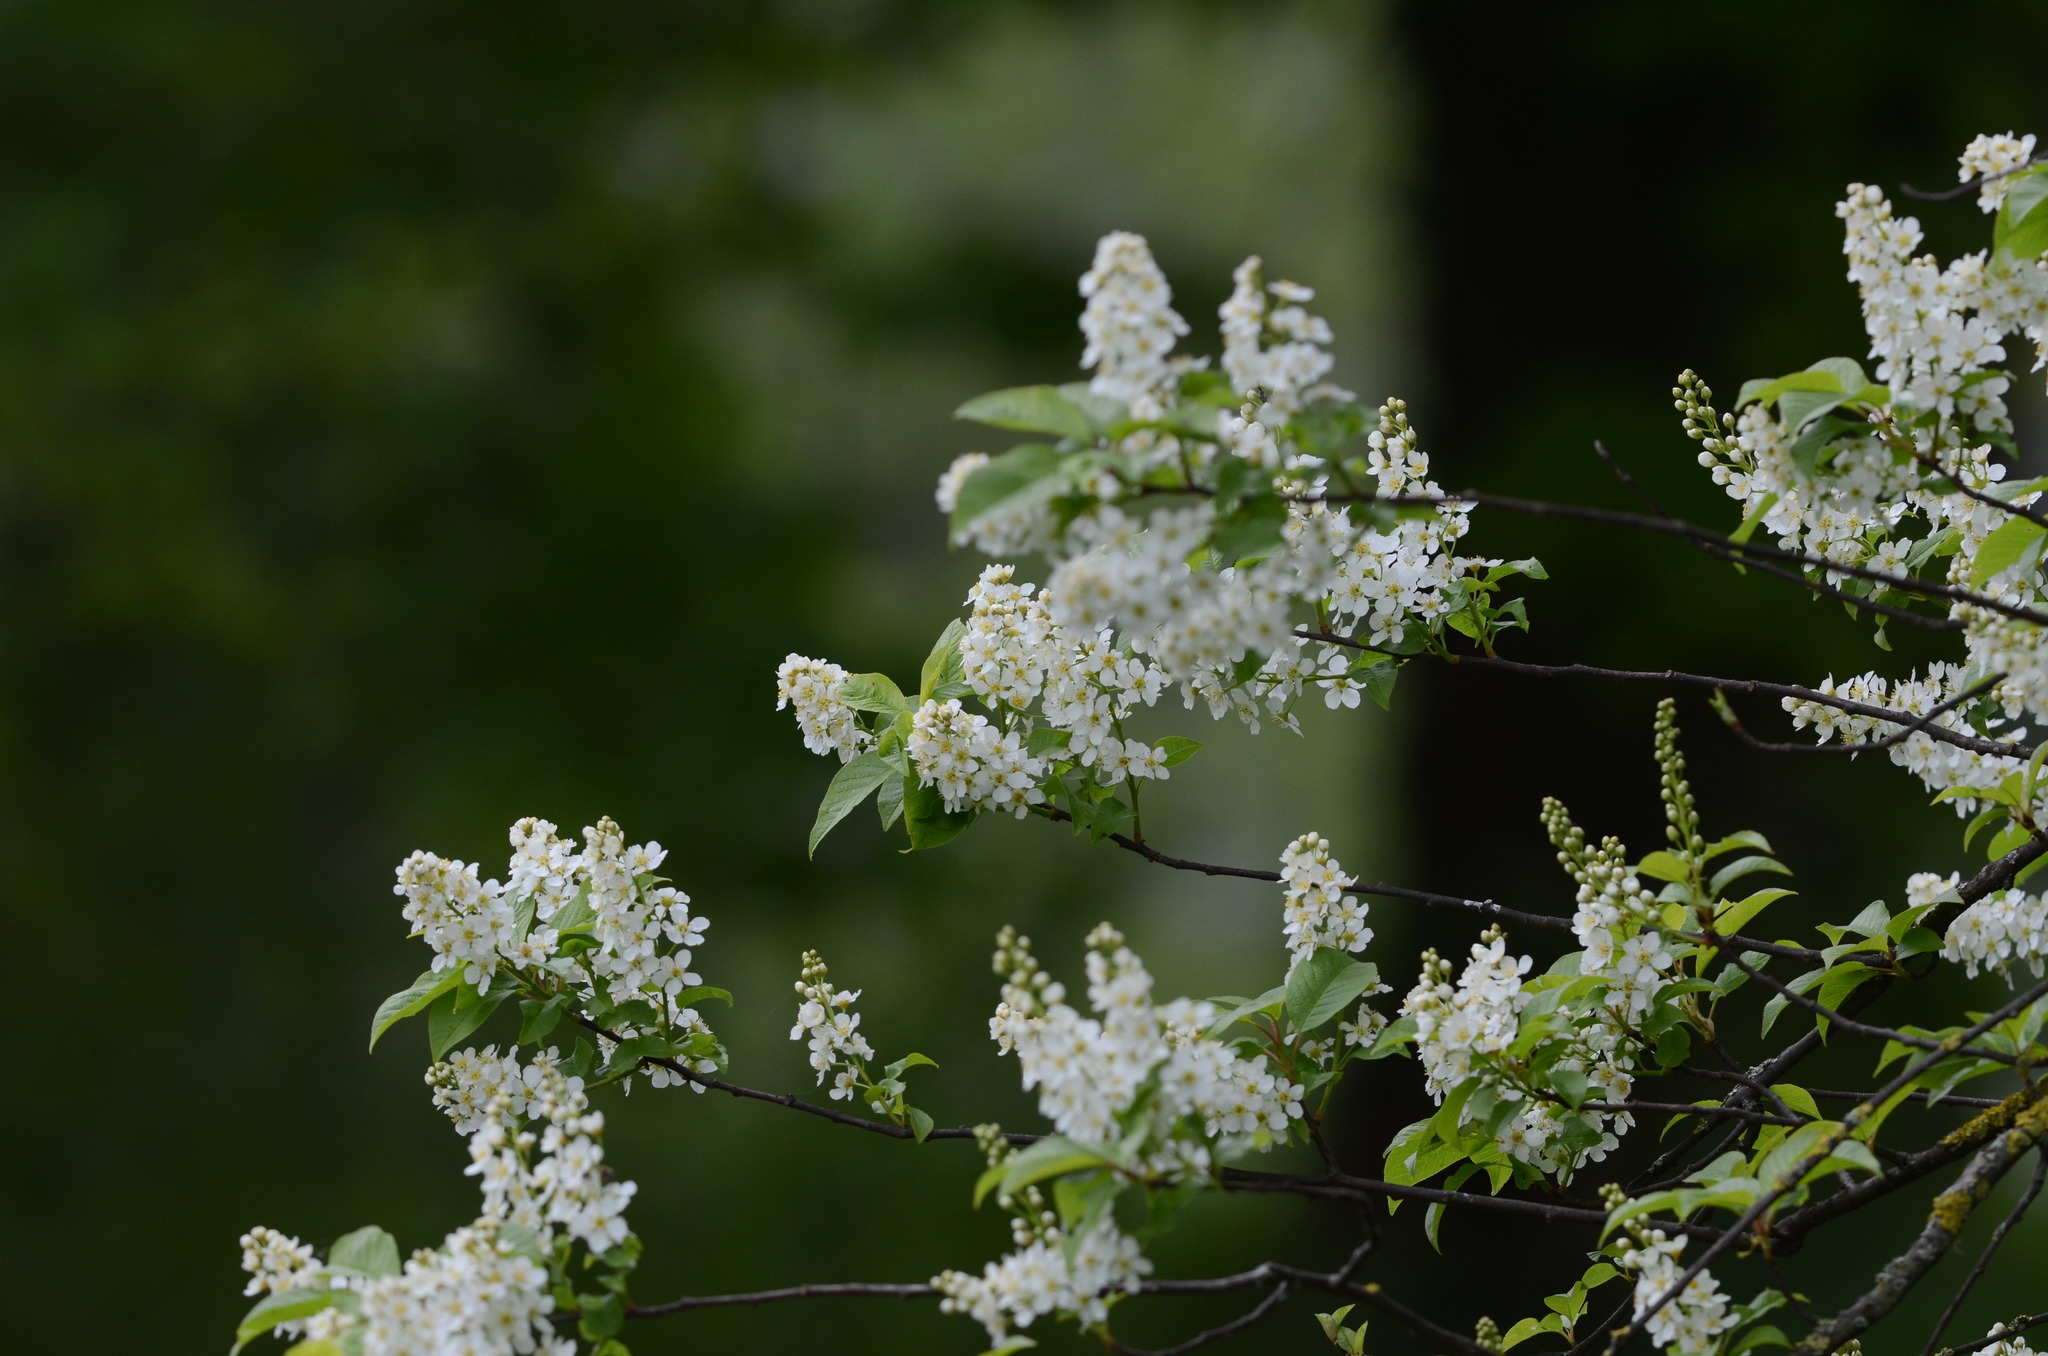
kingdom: Plantae
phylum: Tracheophyta
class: Magnoliopsida
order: Rosales
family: Rosaceae
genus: Prunus
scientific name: Prunus padus
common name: Bird cherry
